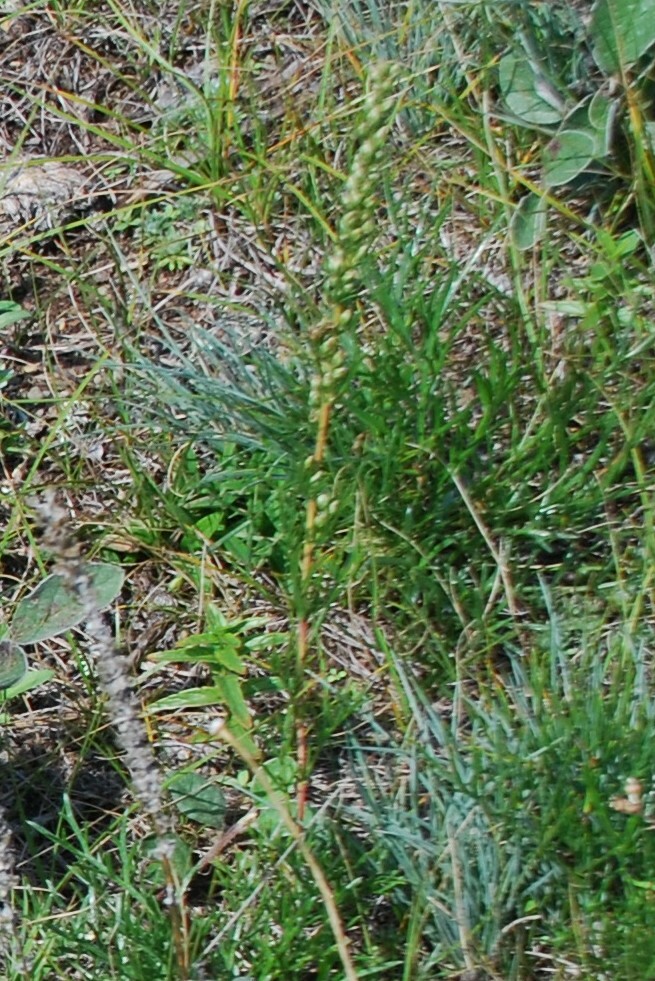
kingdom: Plantae
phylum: Tracheophyta
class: Magnoliopsida
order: Asterales
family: Asteraceae
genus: Artemisia
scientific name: Artemisia pubescens
